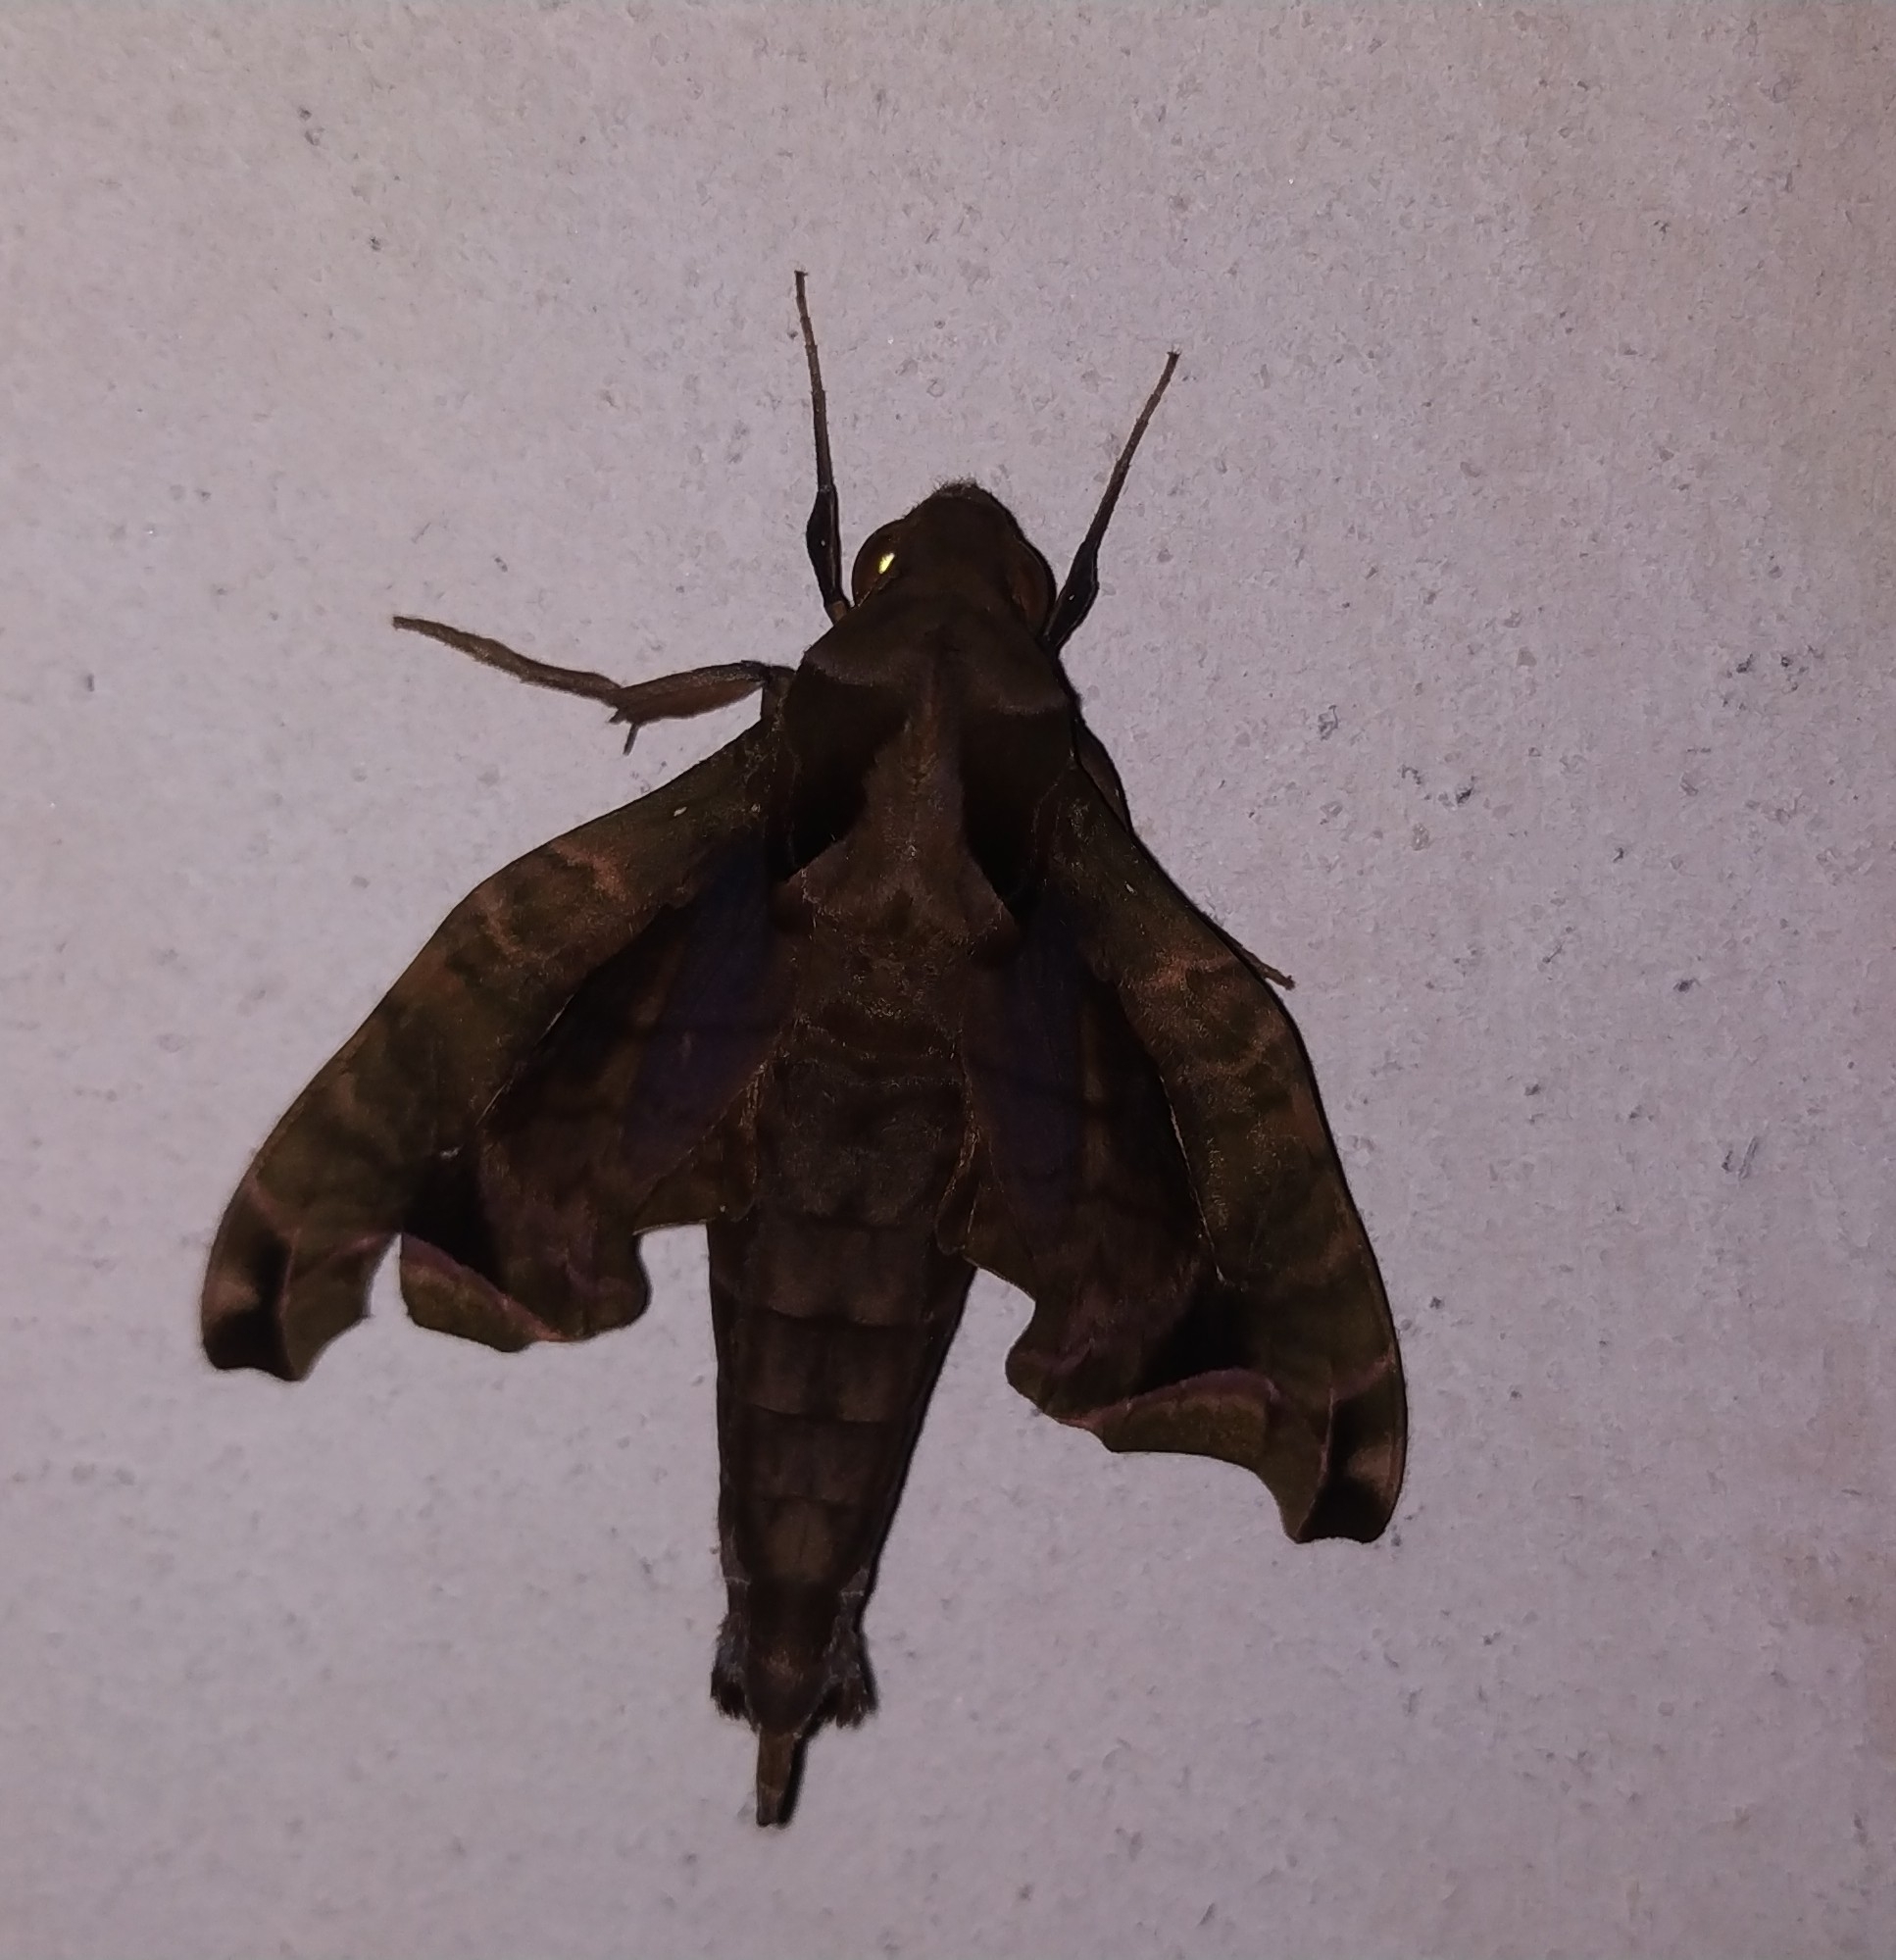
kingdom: Animalia
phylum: Arthropoda
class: Insecta
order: Lepidoptera
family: Sphingidae
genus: Enyo
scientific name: Enyo gorgon
